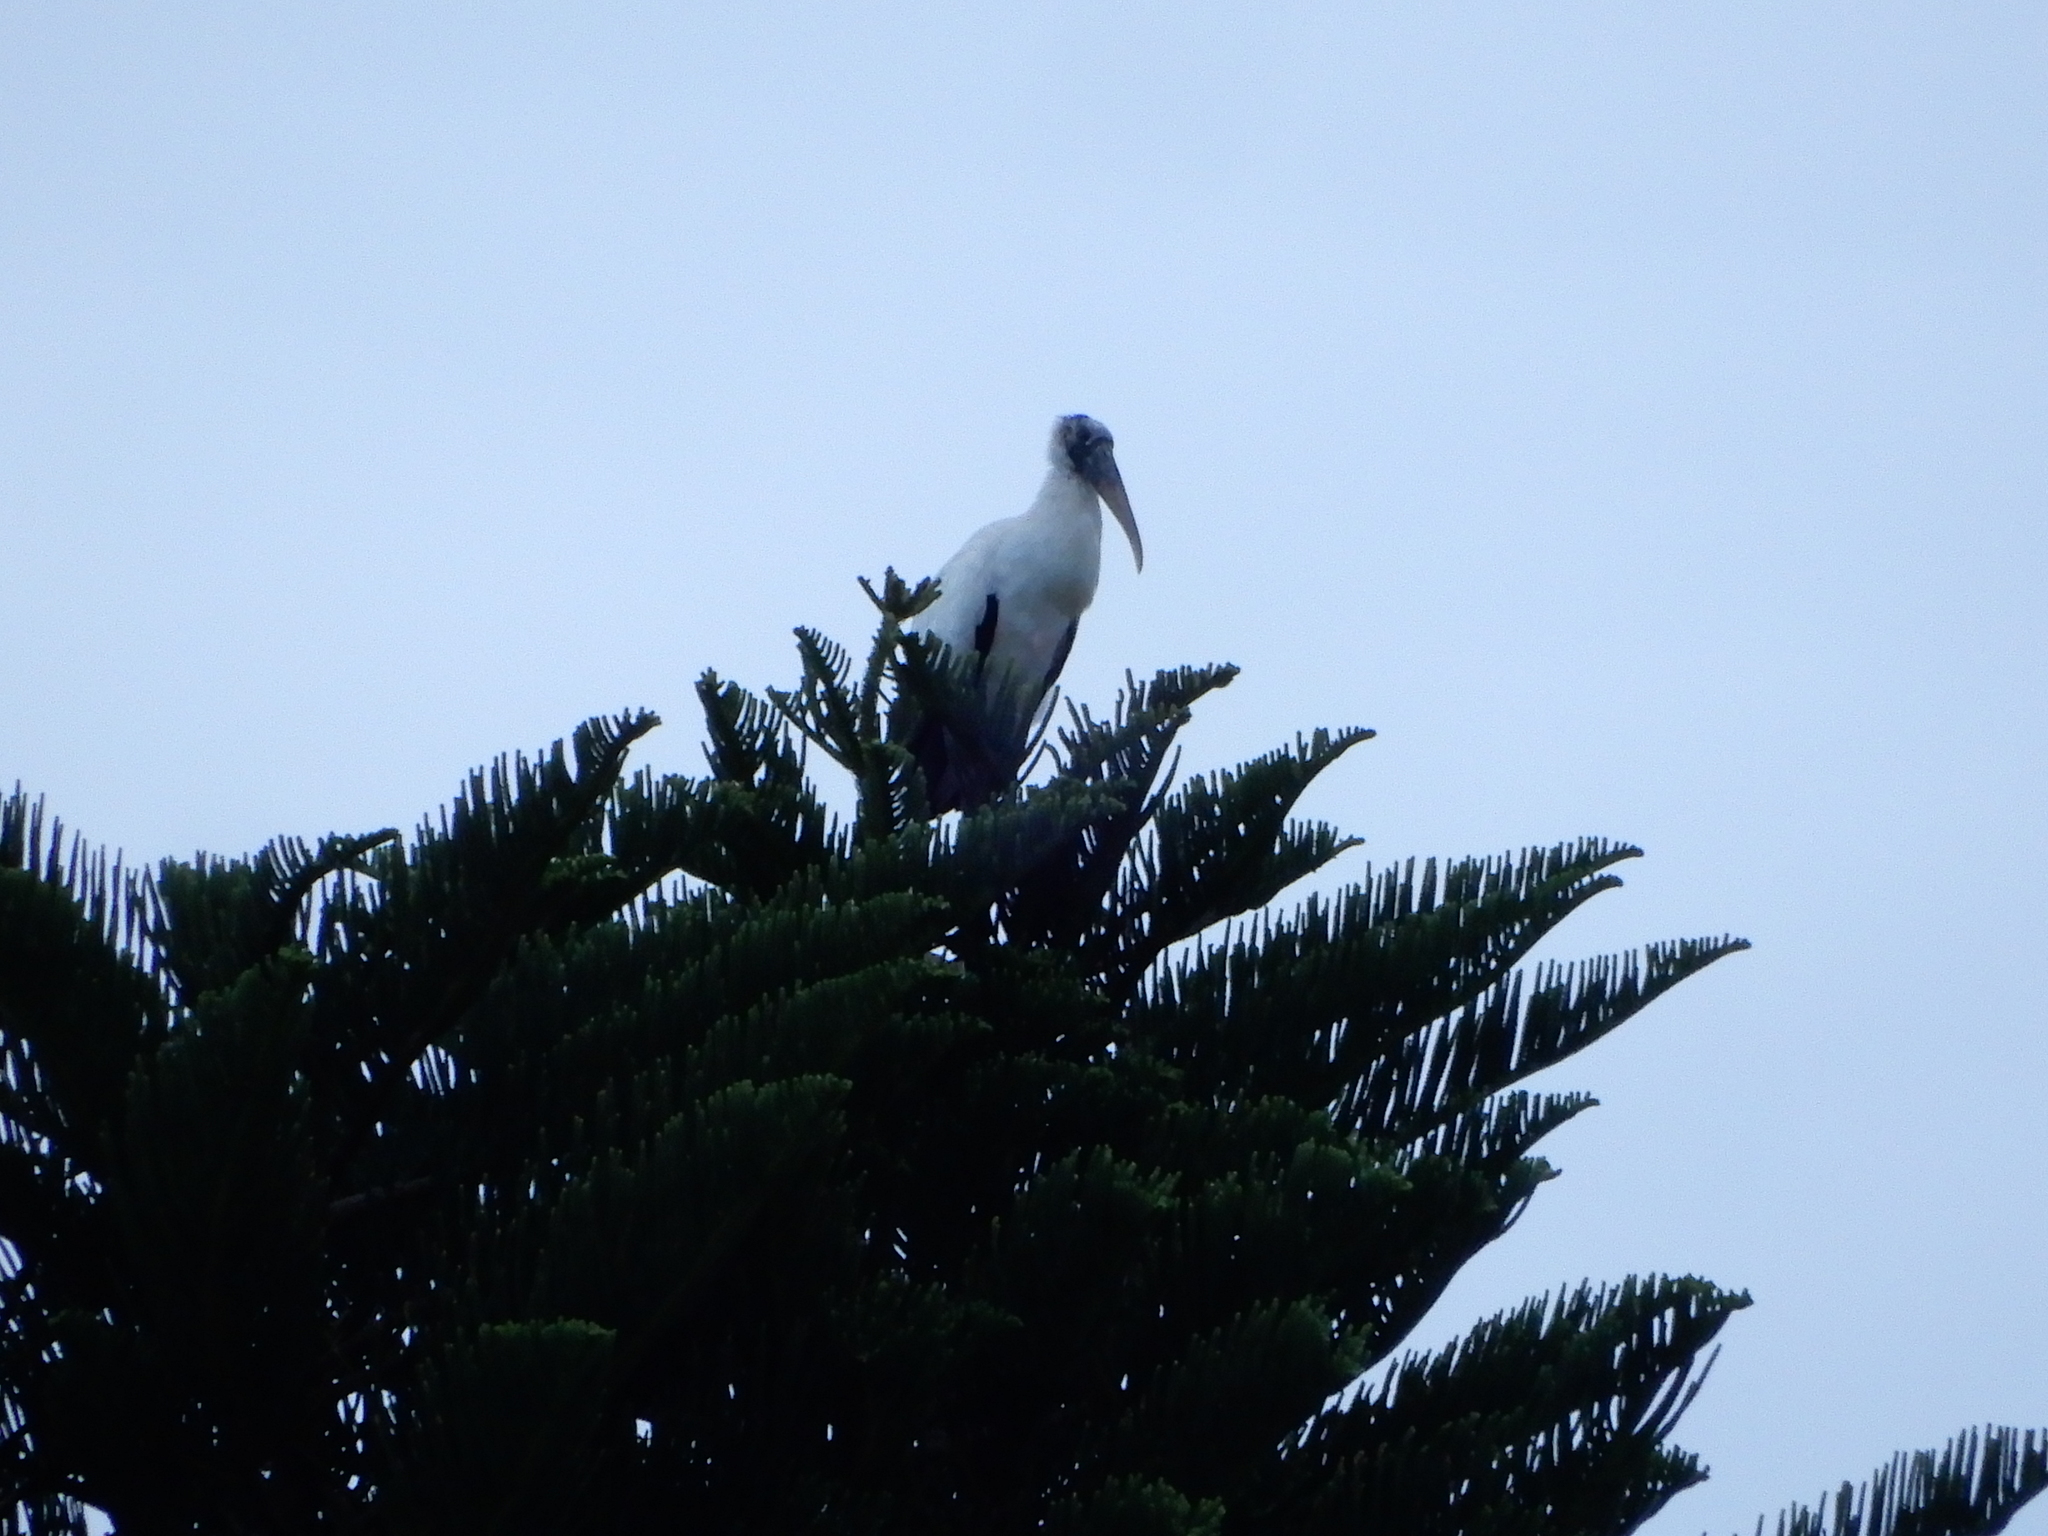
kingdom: Animalia
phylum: Chordata
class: Aves
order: Ciconiiformes
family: Ciconiidae
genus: Mycteria
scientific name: Mycteria americana
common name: Wood stork
